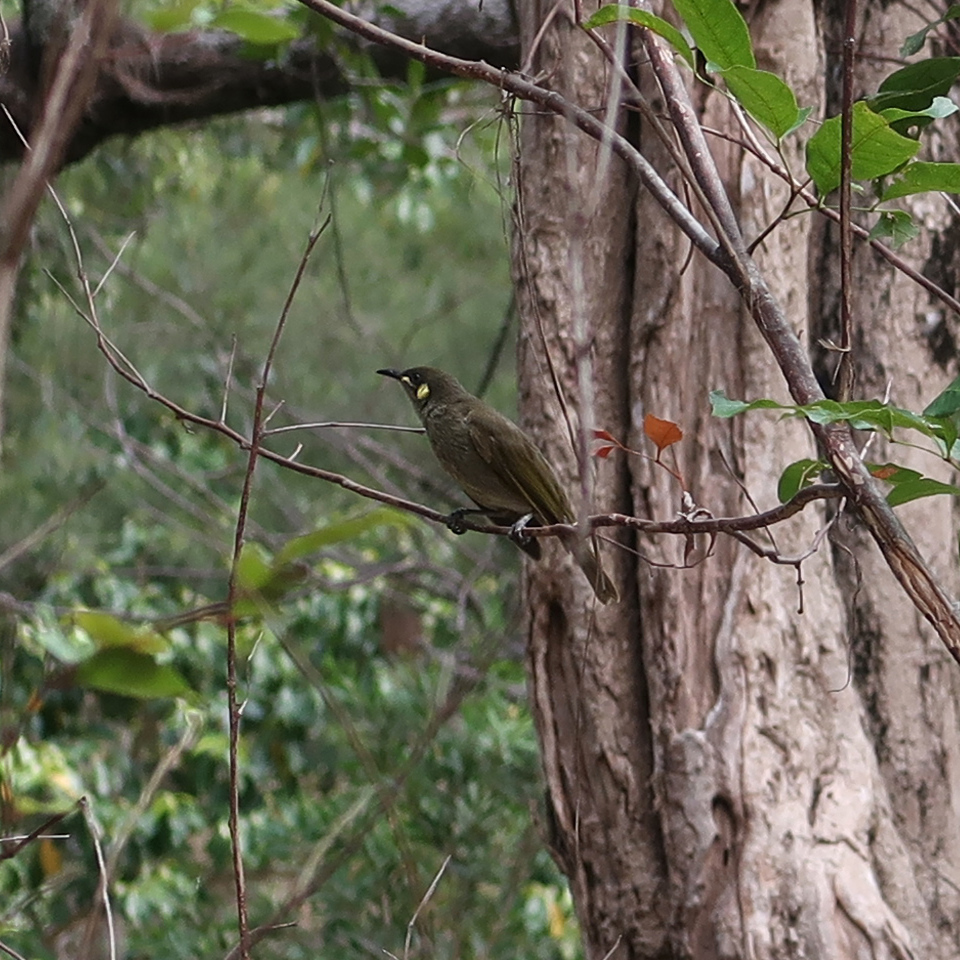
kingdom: Animalia
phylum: Chordata
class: Aves
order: Passeriformes
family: Meliphagidae
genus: Meliphaga
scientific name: Meliphaga lewinii
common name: Lewin's honeyeater
